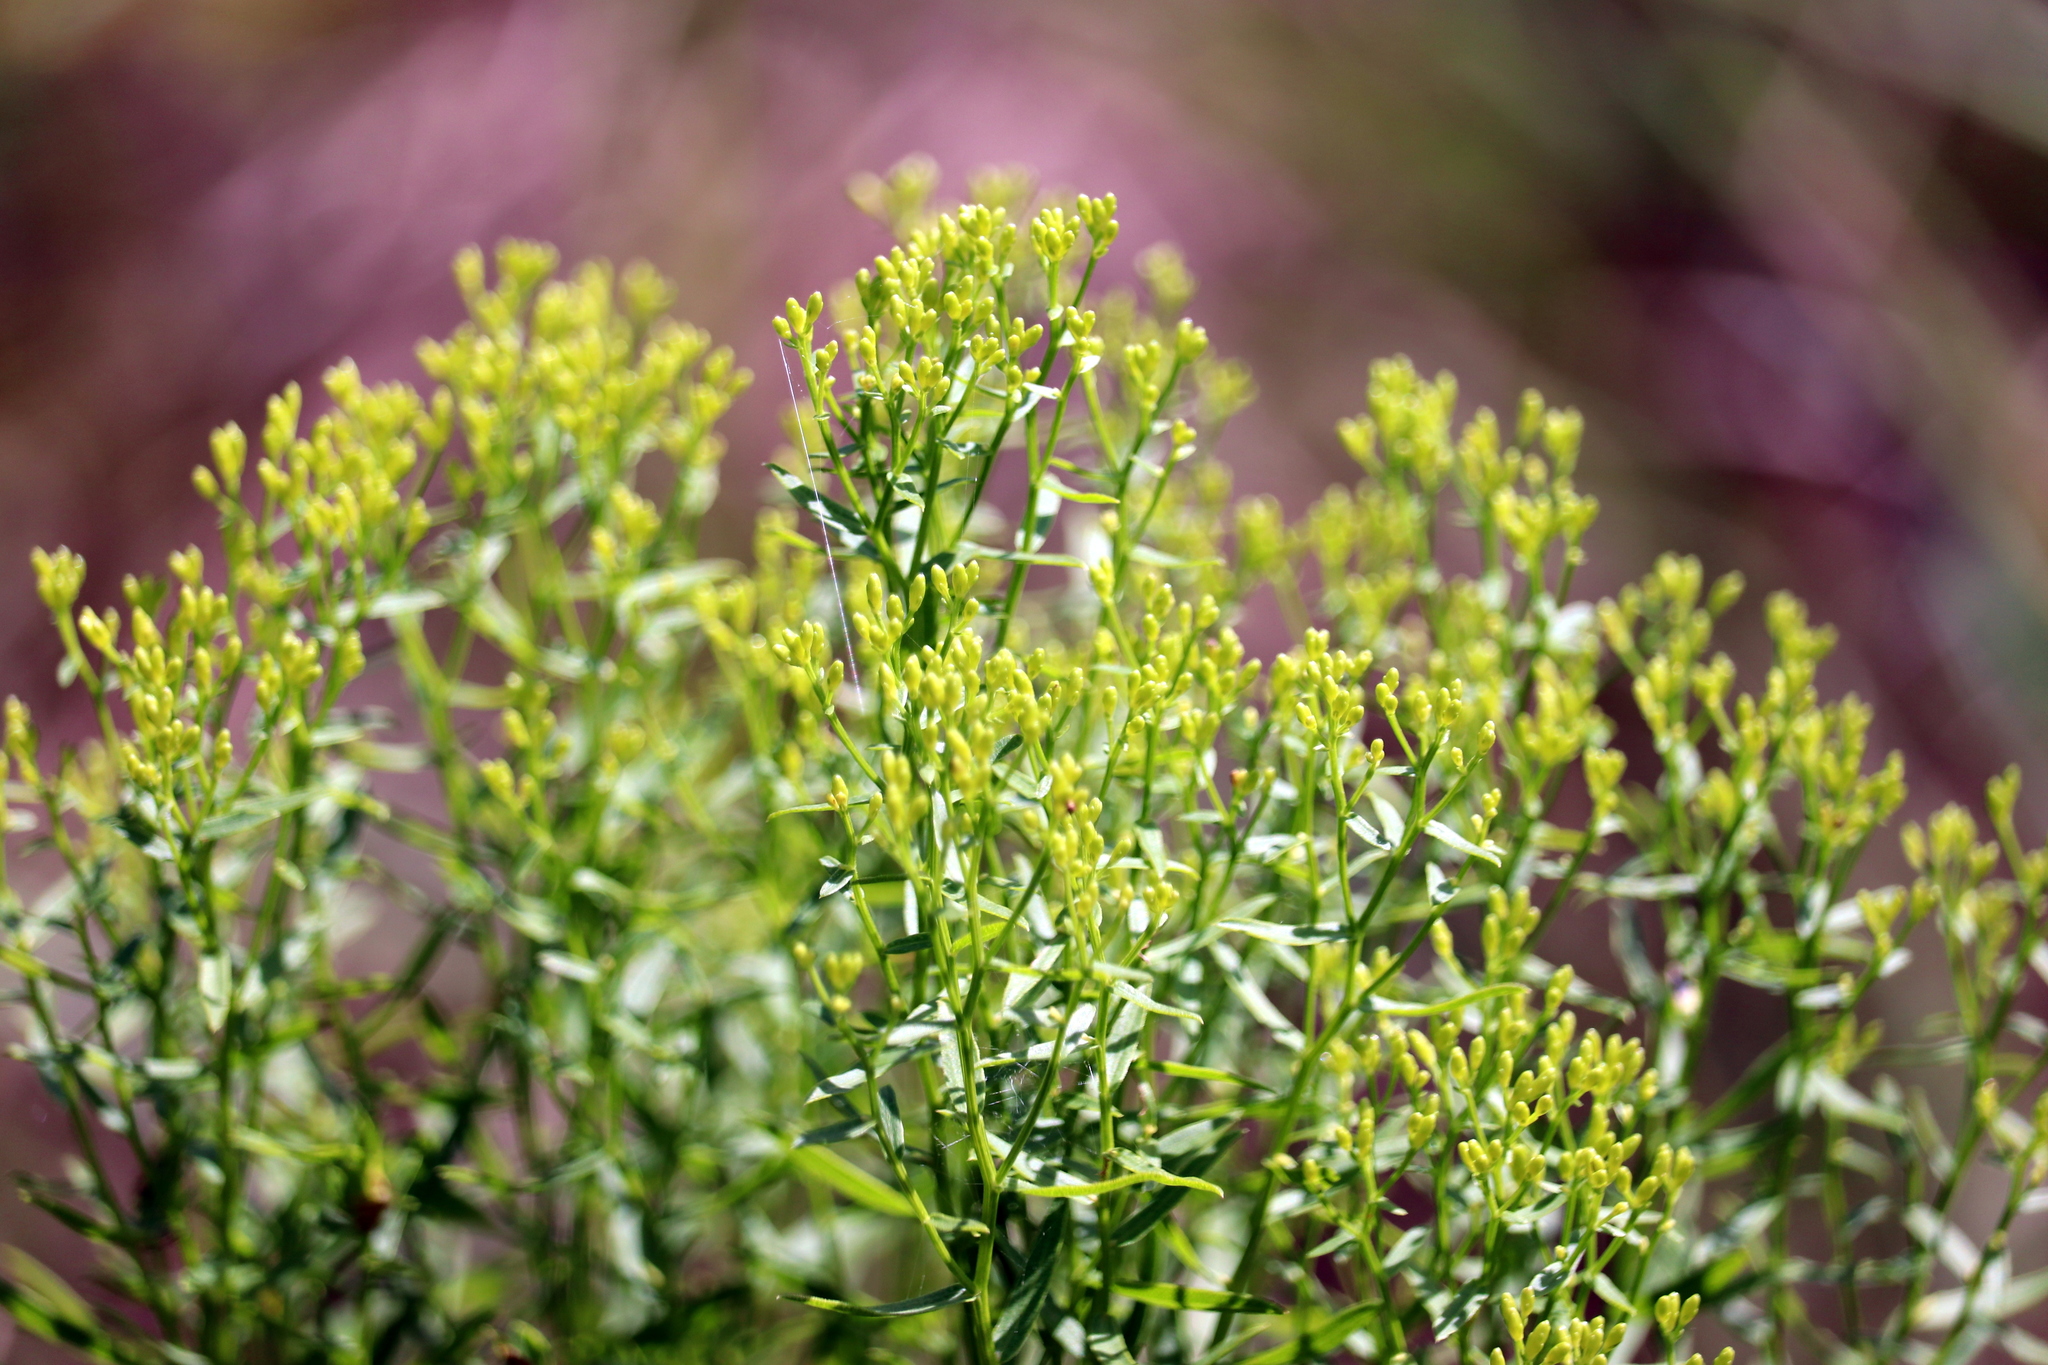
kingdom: Plantae
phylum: Tracheophyta
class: Magnoliopsida
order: Asterales
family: Asteraceae
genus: Euthamia
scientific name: Euthamia leptocephala
